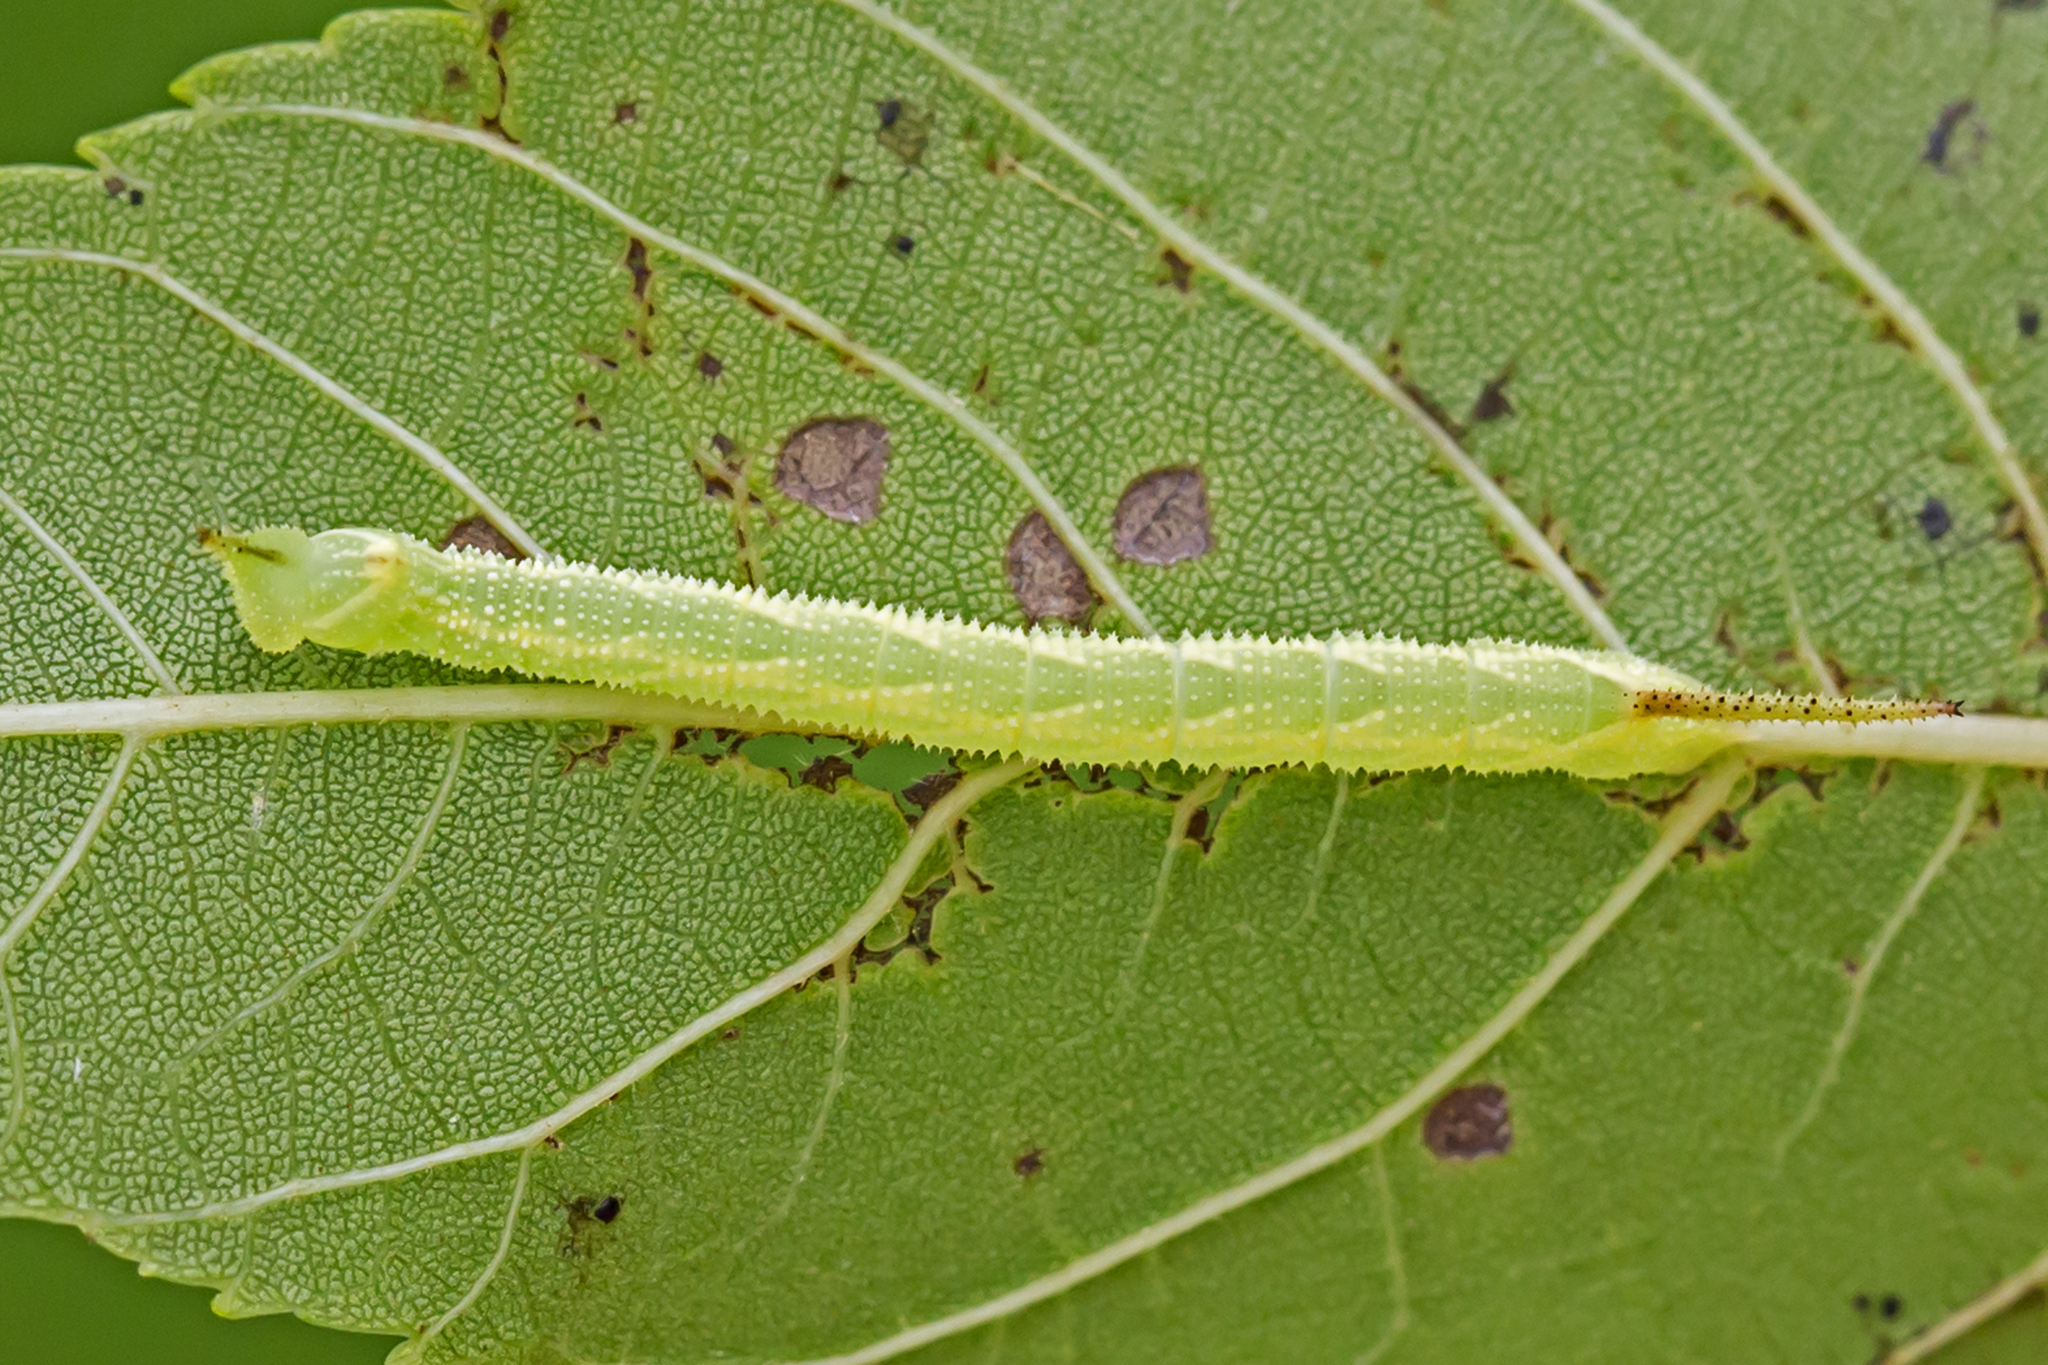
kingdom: Animalia
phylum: Arthropoda
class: Insecta
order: Lepidoptera
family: Sphingidae
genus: Amorpha
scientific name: Amorpha juglandis
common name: Walnut sphinx
